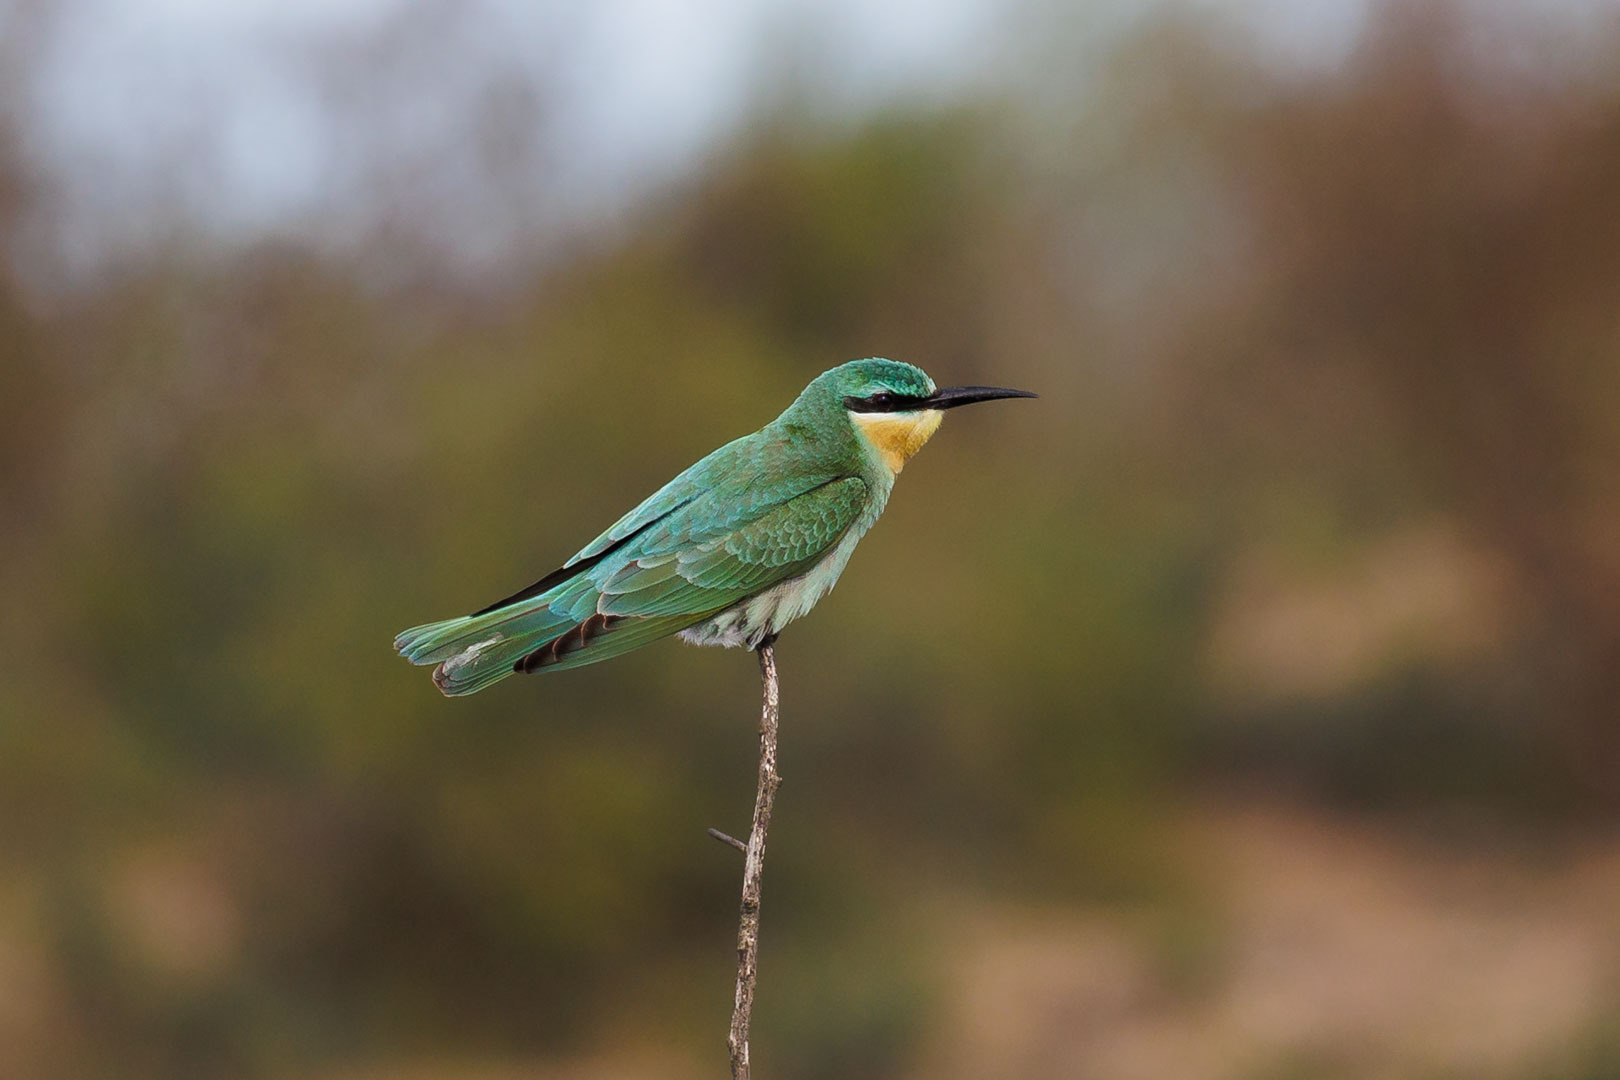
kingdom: Animalia
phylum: Chordata
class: Aves
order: Coraciiformes
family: Meropidae
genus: Merops
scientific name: Merops persicus
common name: Blue-cheeked bee-eater
